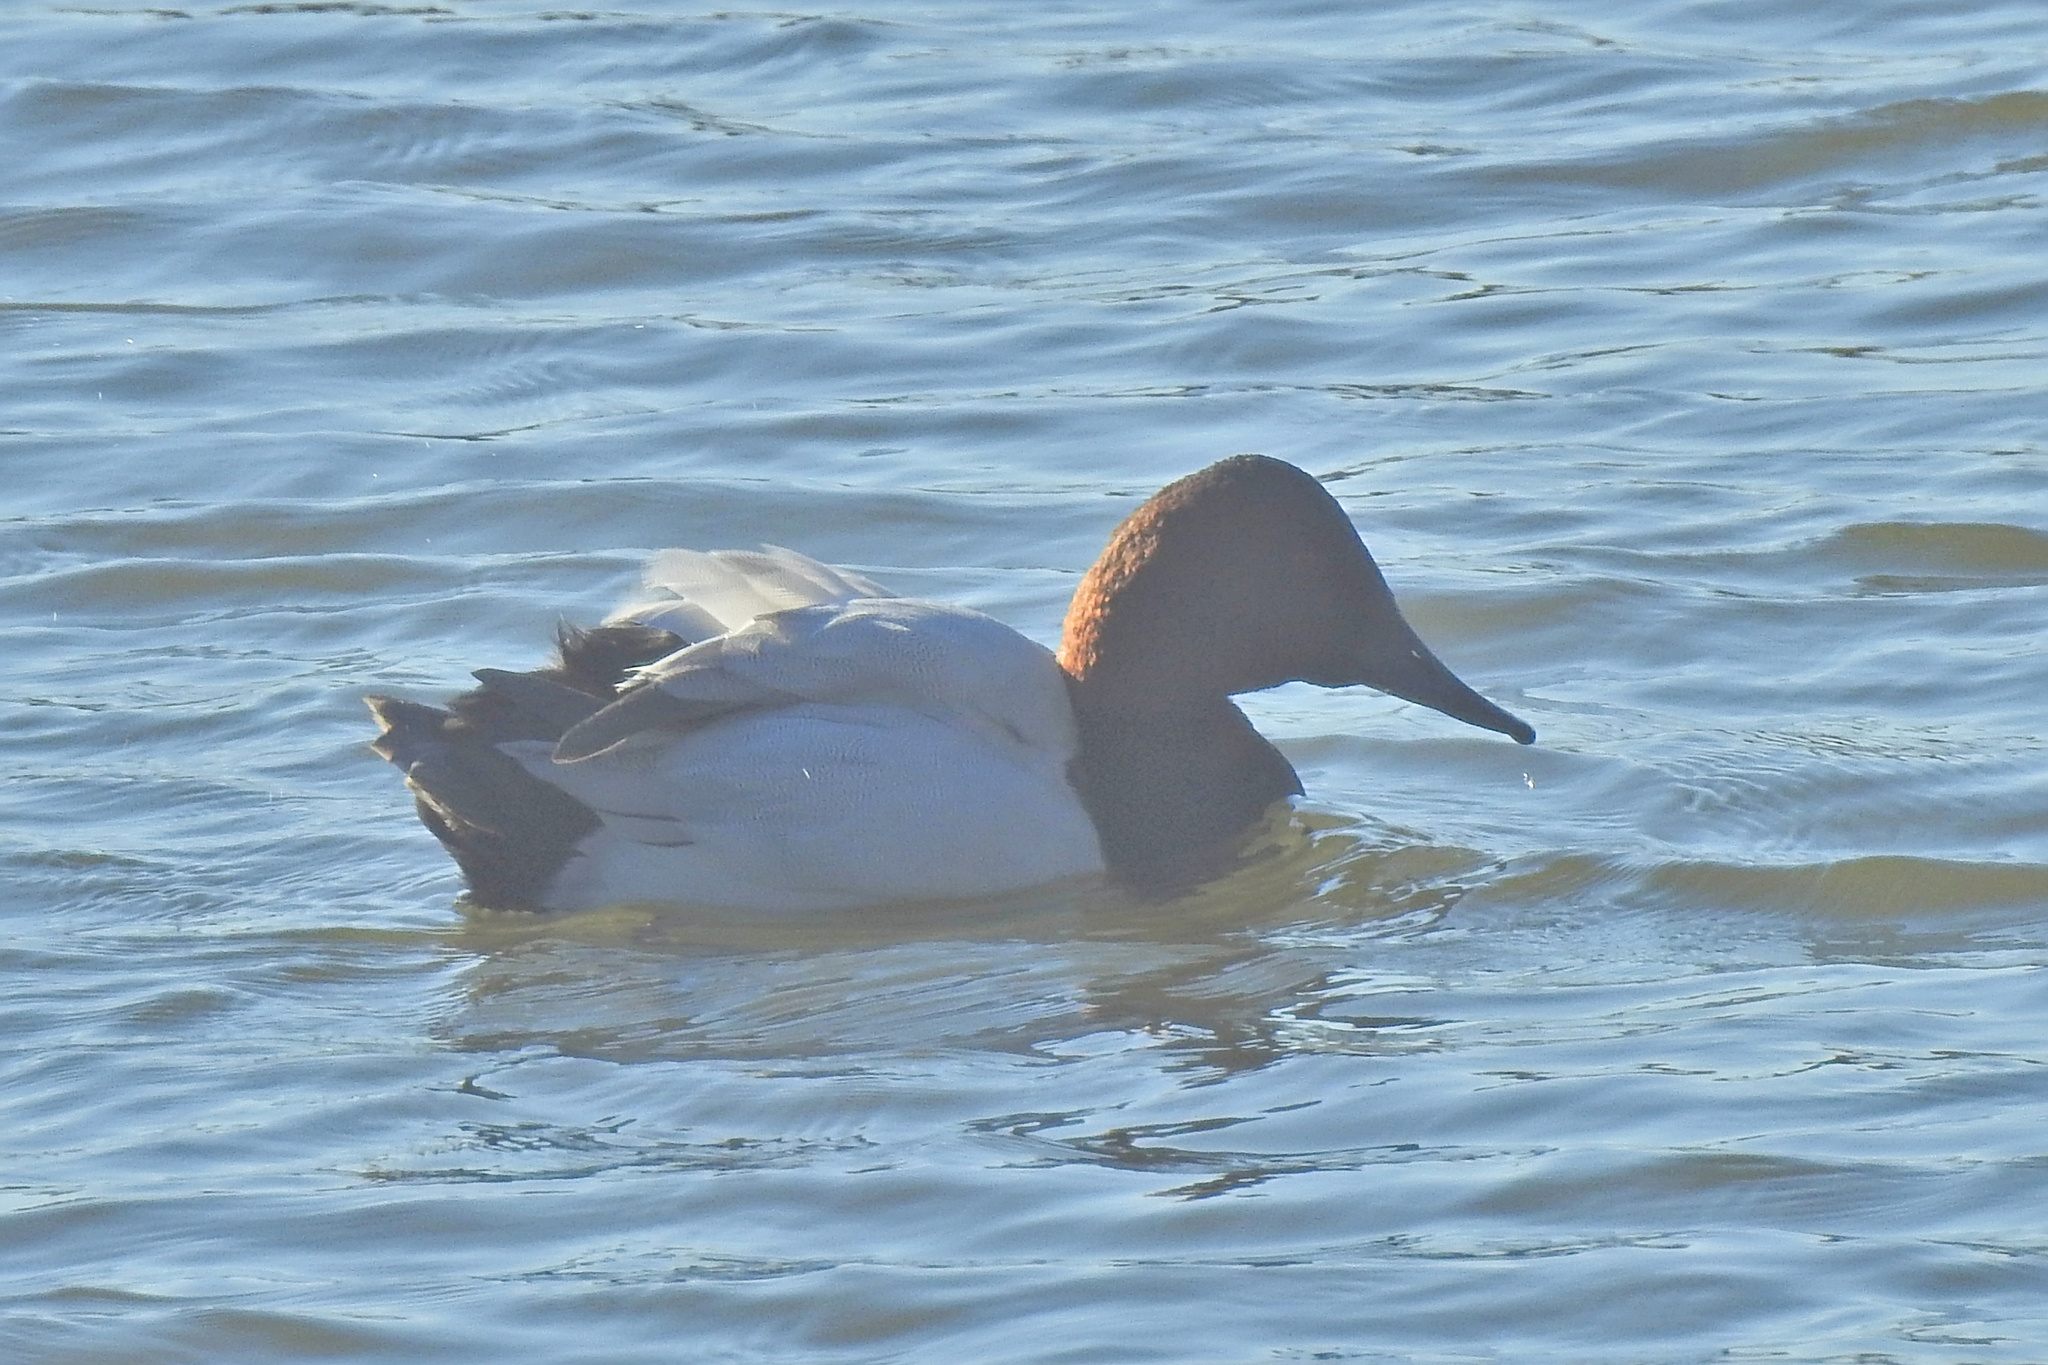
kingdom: Animalia
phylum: Chordata
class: Aves
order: Anseriformes
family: Anatidae
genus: Aythya
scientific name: Aythya valisineria
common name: Canvasback
